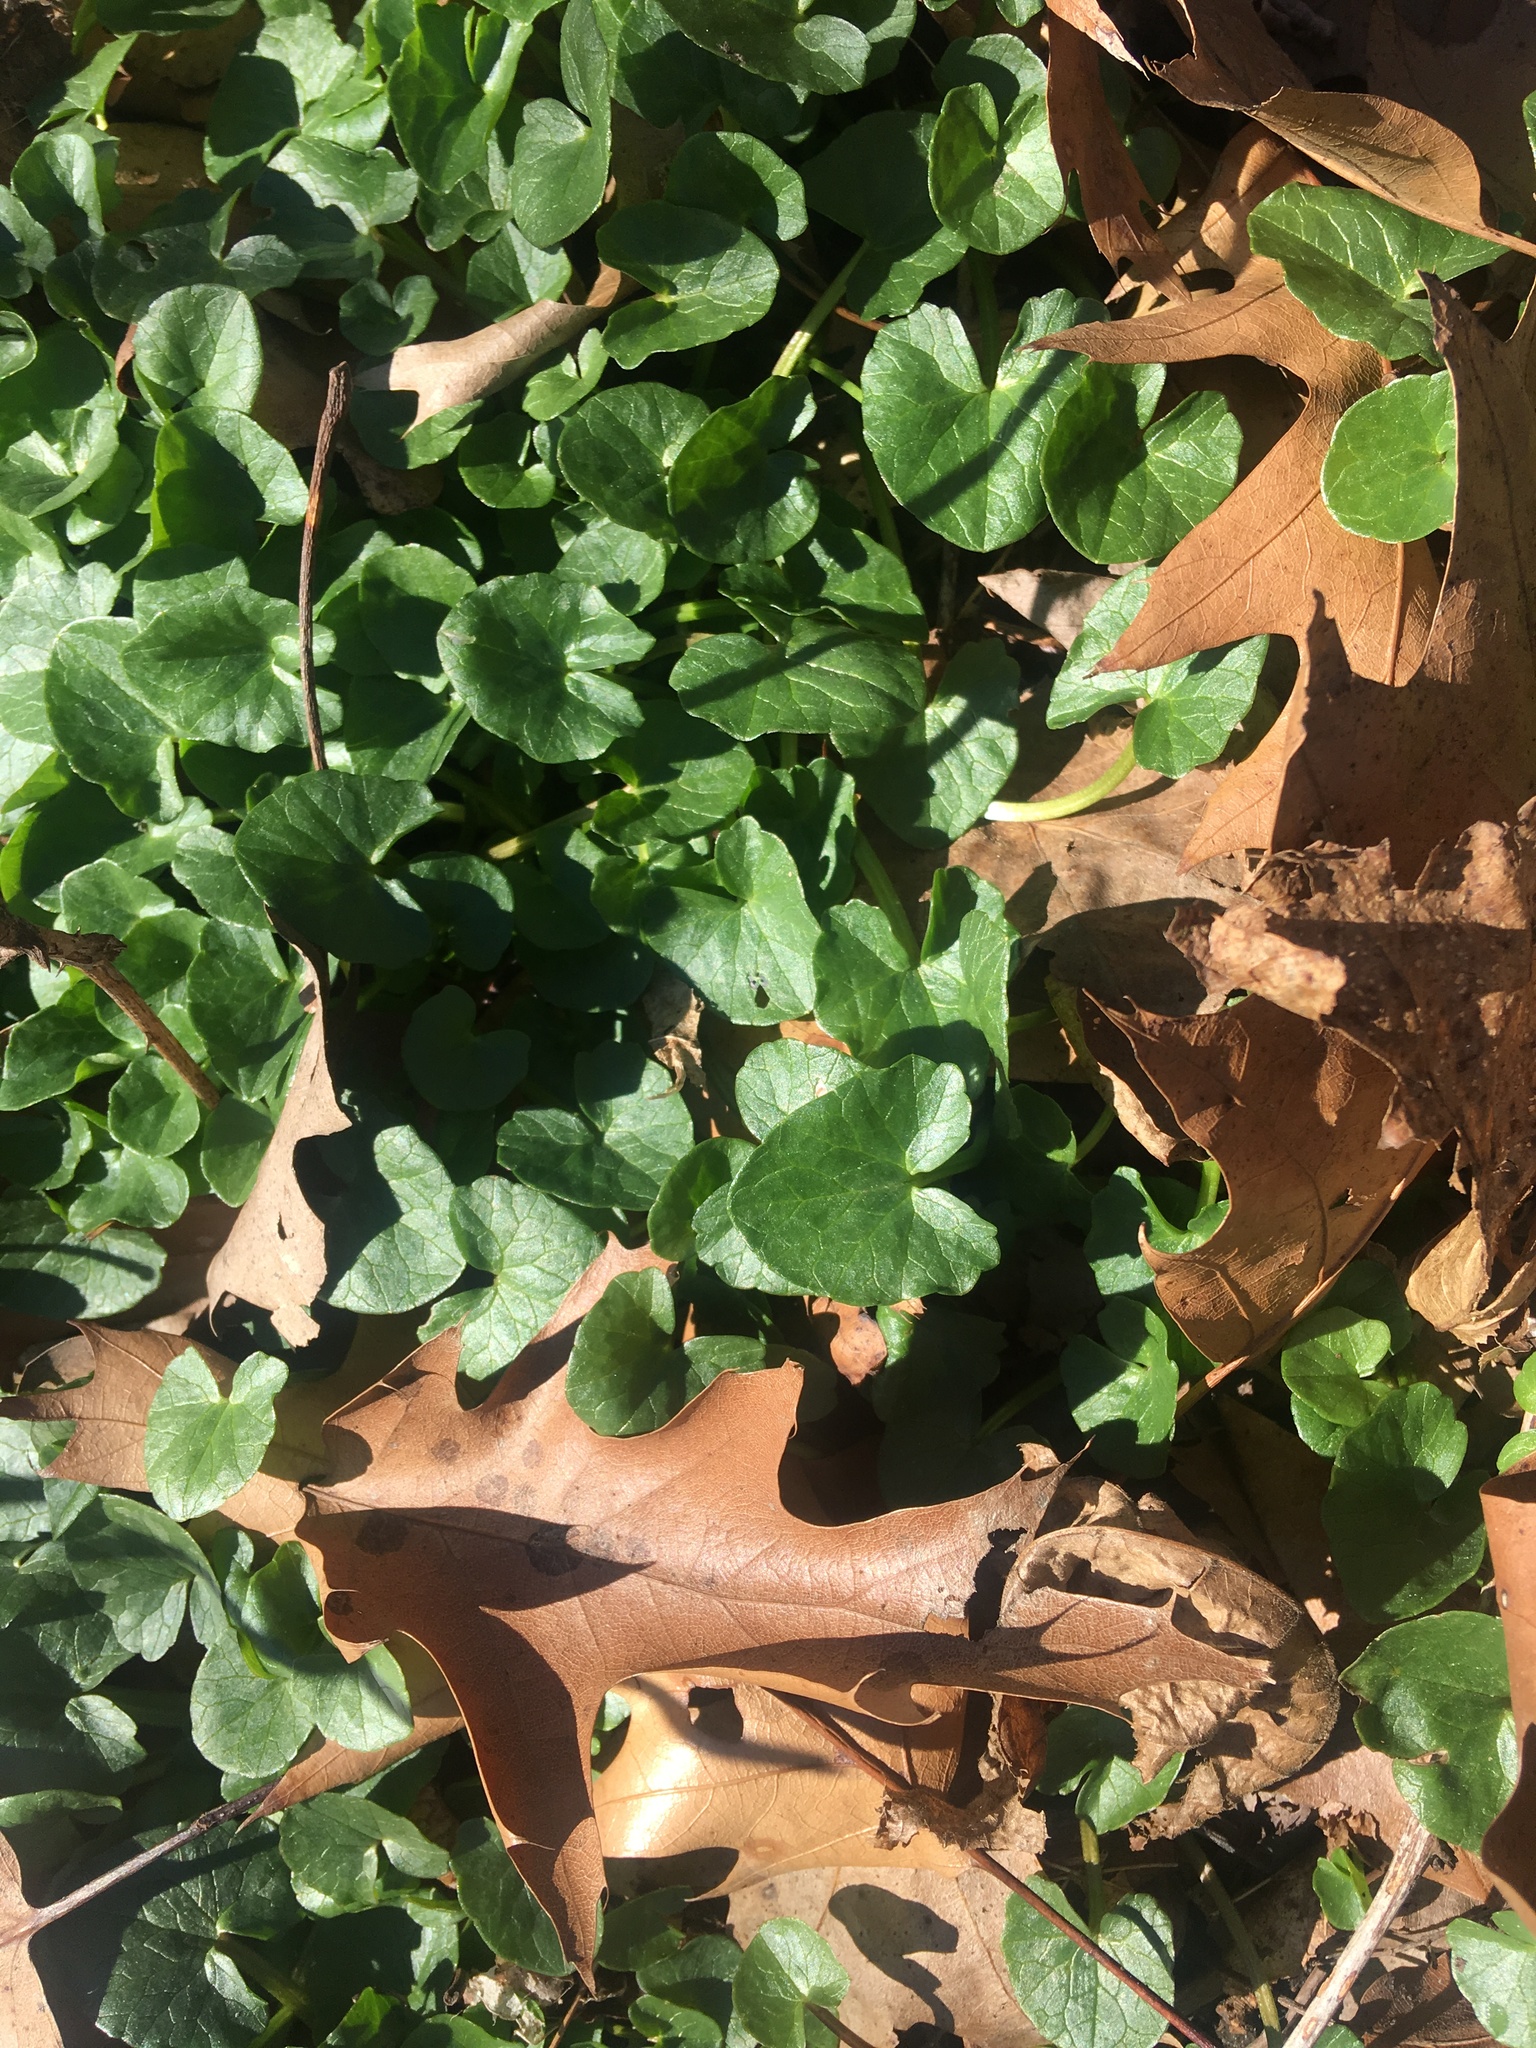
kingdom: Plantae
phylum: Tracheophyta
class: Magnoliopsida
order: Ranunculales
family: Ranunculaceae
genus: Ficaria
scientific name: Ficaria verna
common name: Lesser celandine
